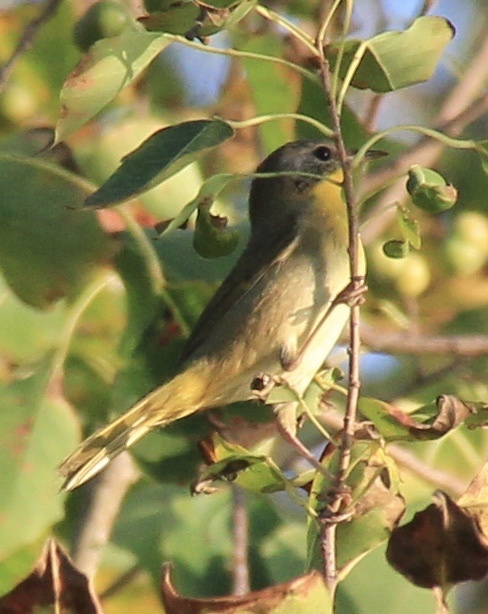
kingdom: Animalia
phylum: Chordata
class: Aves
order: Passeriformes
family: Parulidae
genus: Geothlypis
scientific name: Geothlypis trichas
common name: Common yellowthroat
